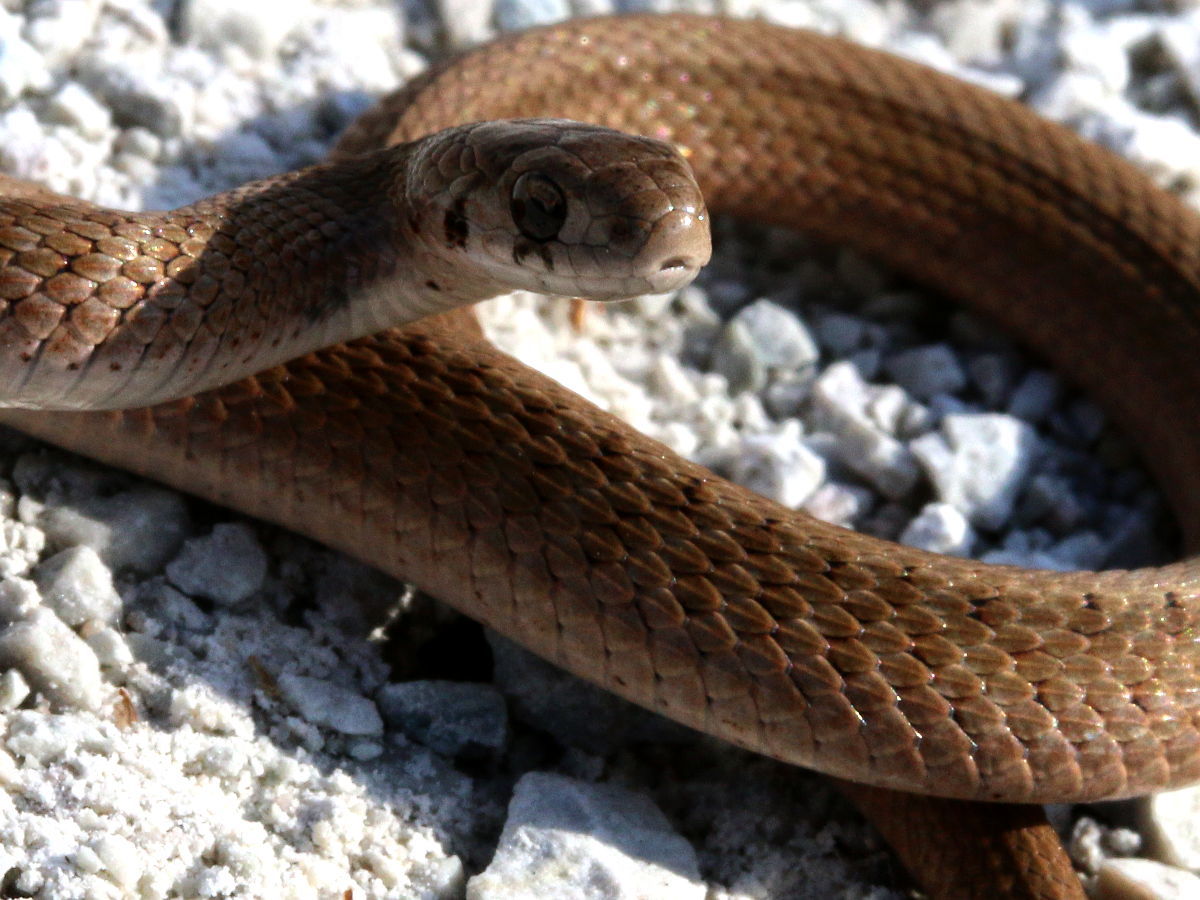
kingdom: Animalia
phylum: Chordata
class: Squamata
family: Colubridae
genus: Storeria
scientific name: Storeria dekayi
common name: (dekay’s) brown snake
